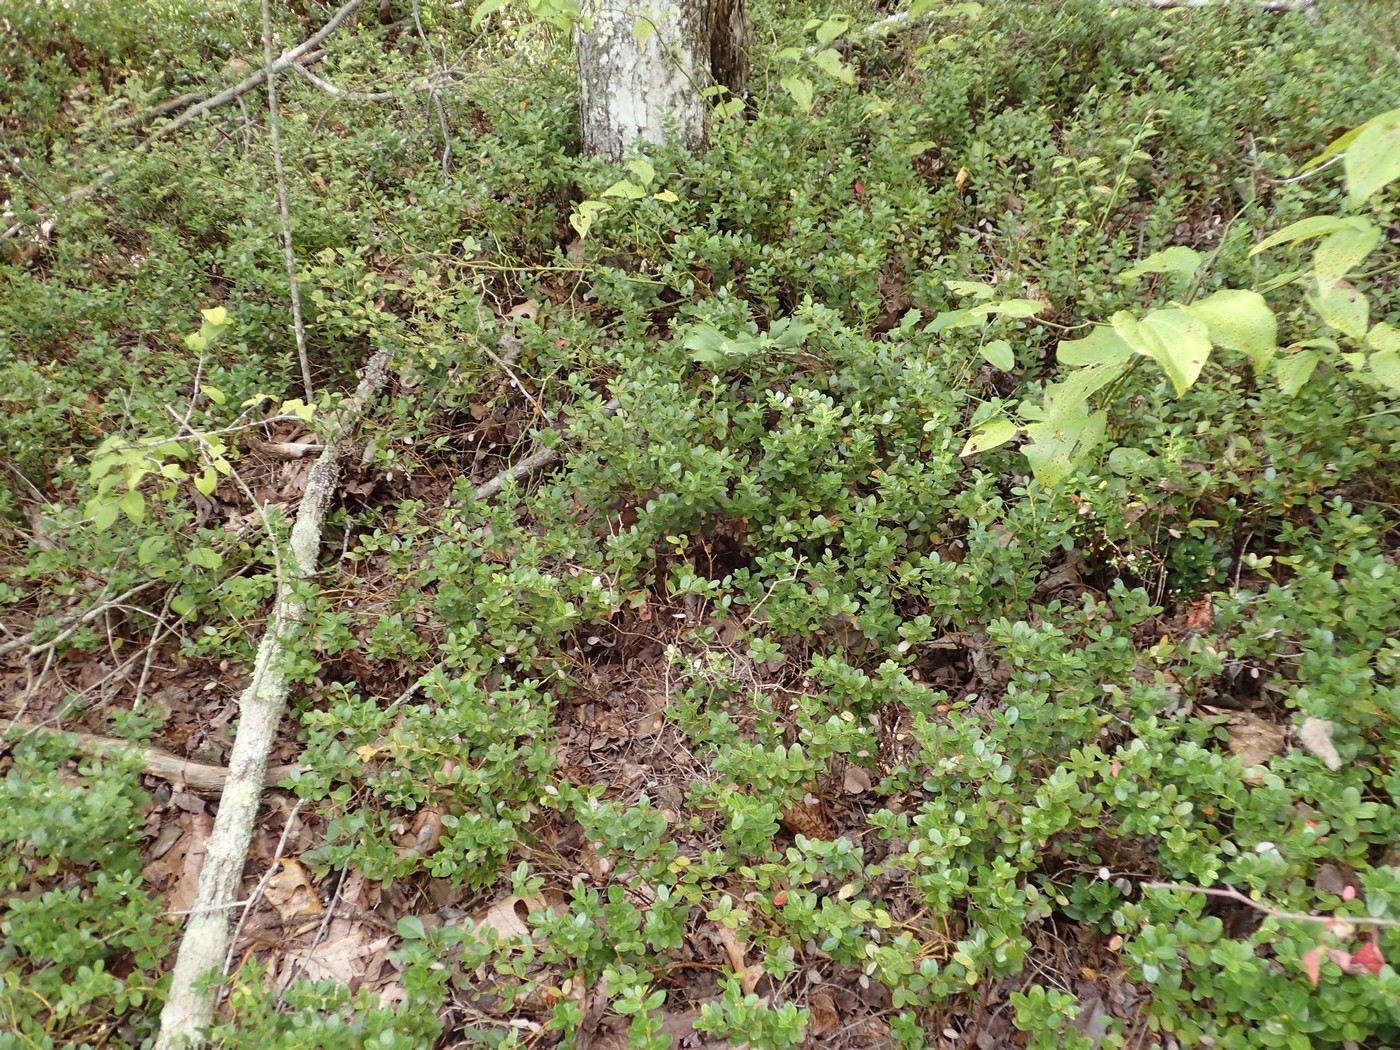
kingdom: Plantae
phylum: Tracheophyta
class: Magnoliopsida
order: Ericales
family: Ericaceae
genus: Gaylussacia
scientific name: Gaylussacia brachycera
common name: Box huckleberry
